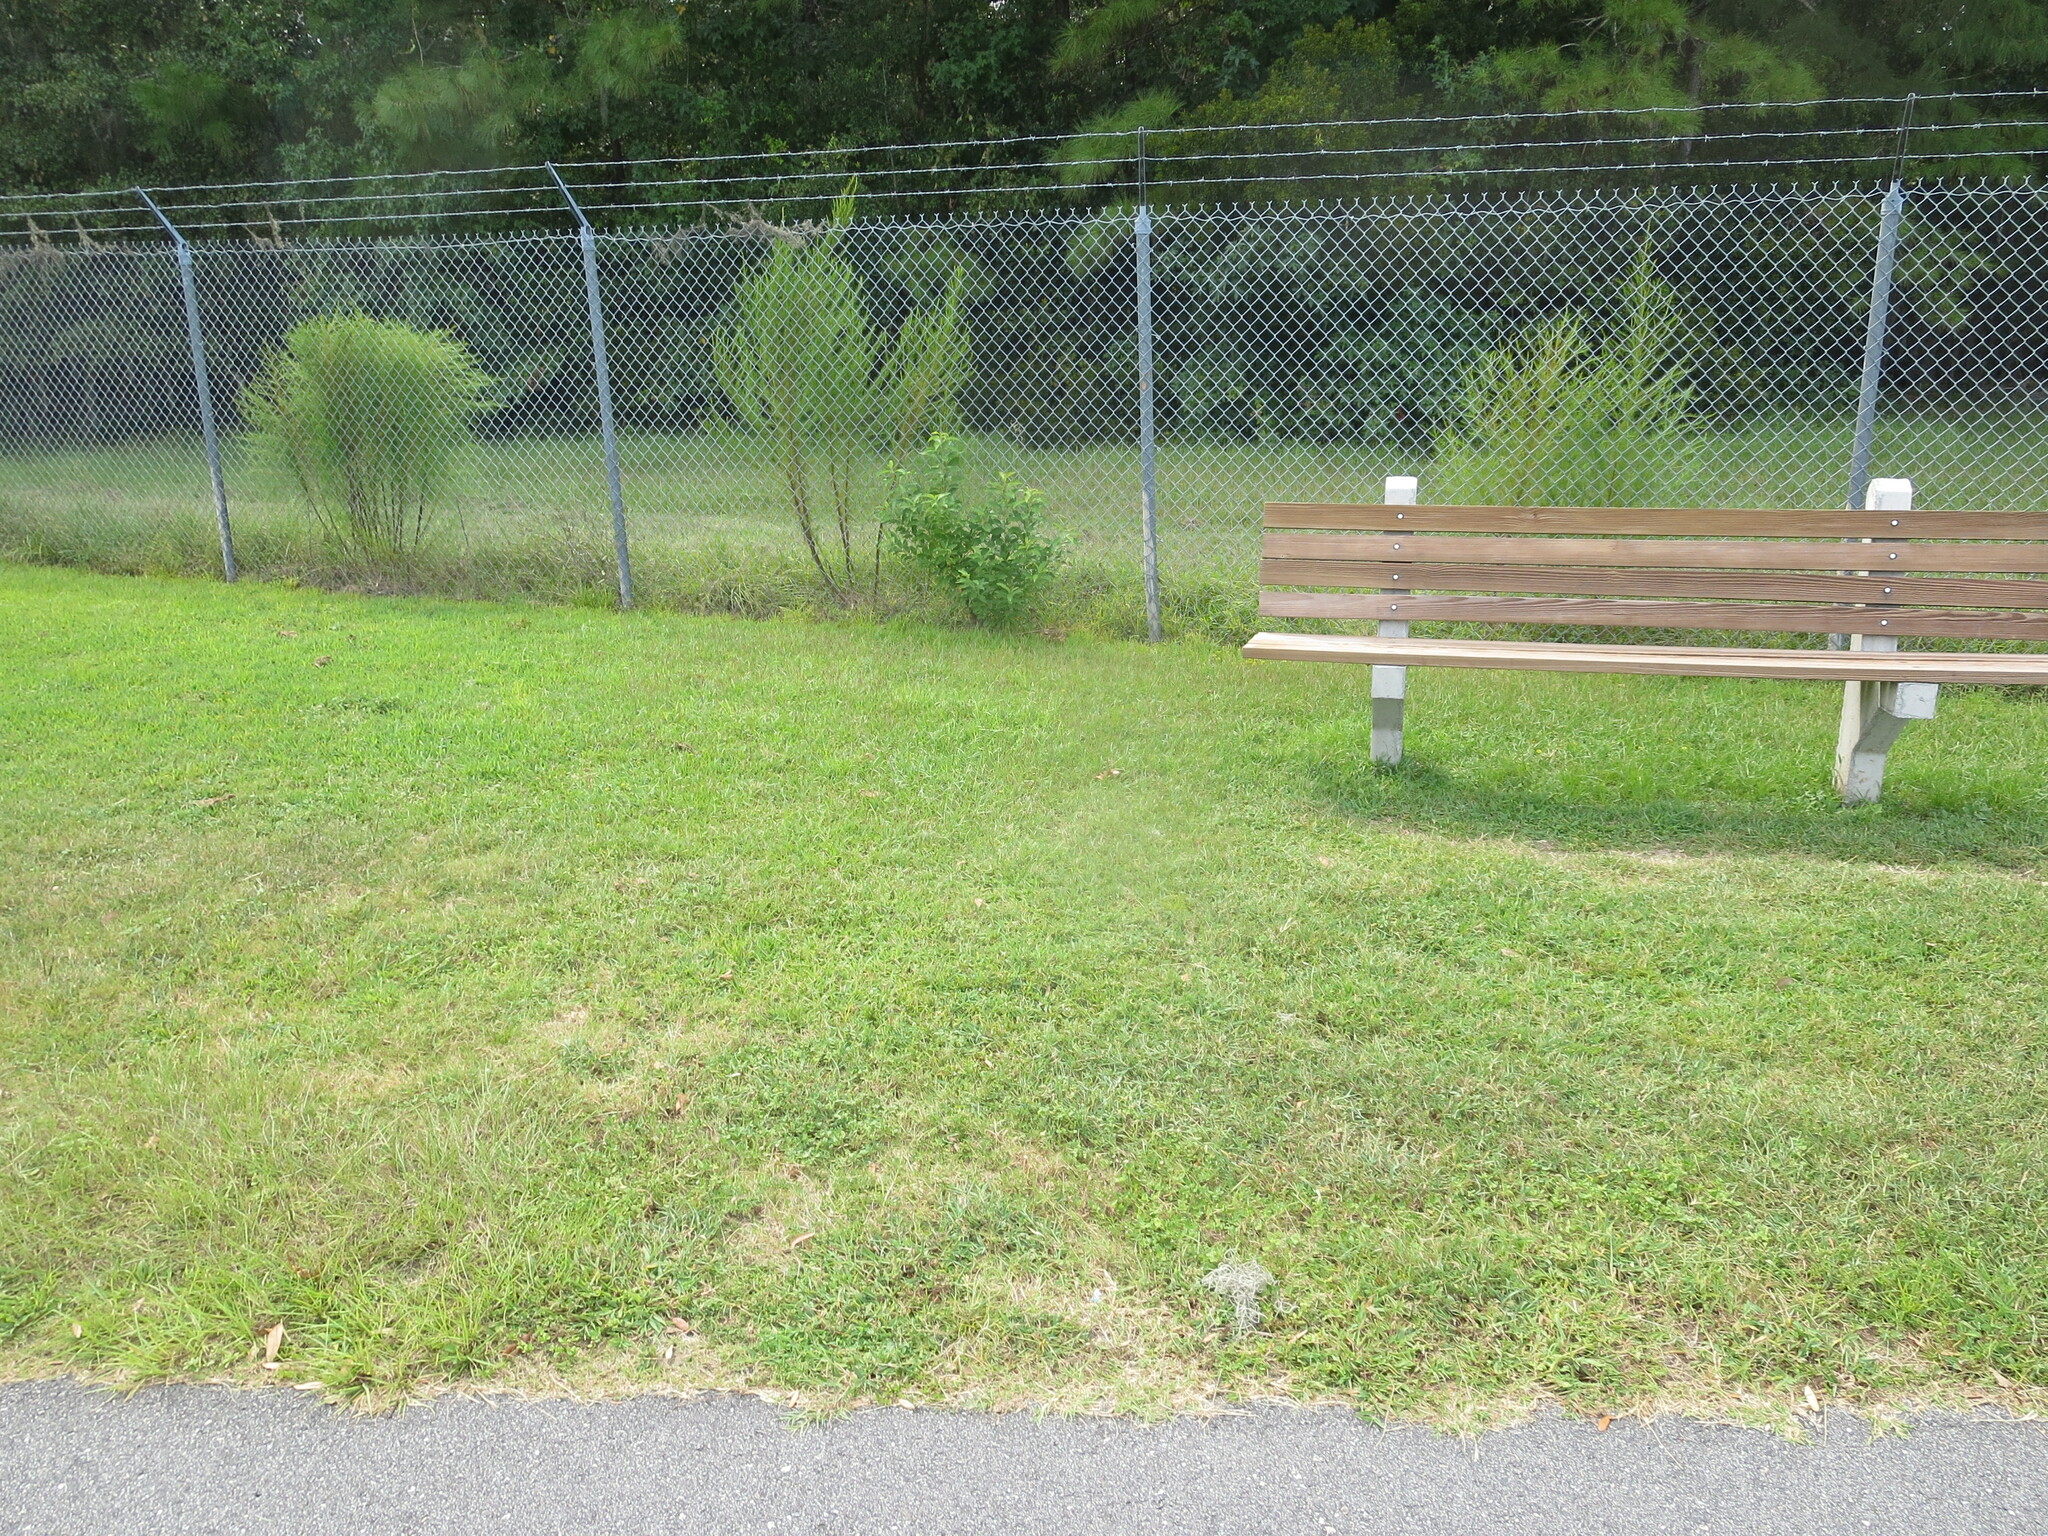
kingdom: Plantae
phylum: Tracheophyta
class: Magnoliopsida
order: Rosales
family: Rosaceae
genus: Prunus
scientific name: Prunus serotina
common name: Black cherry
